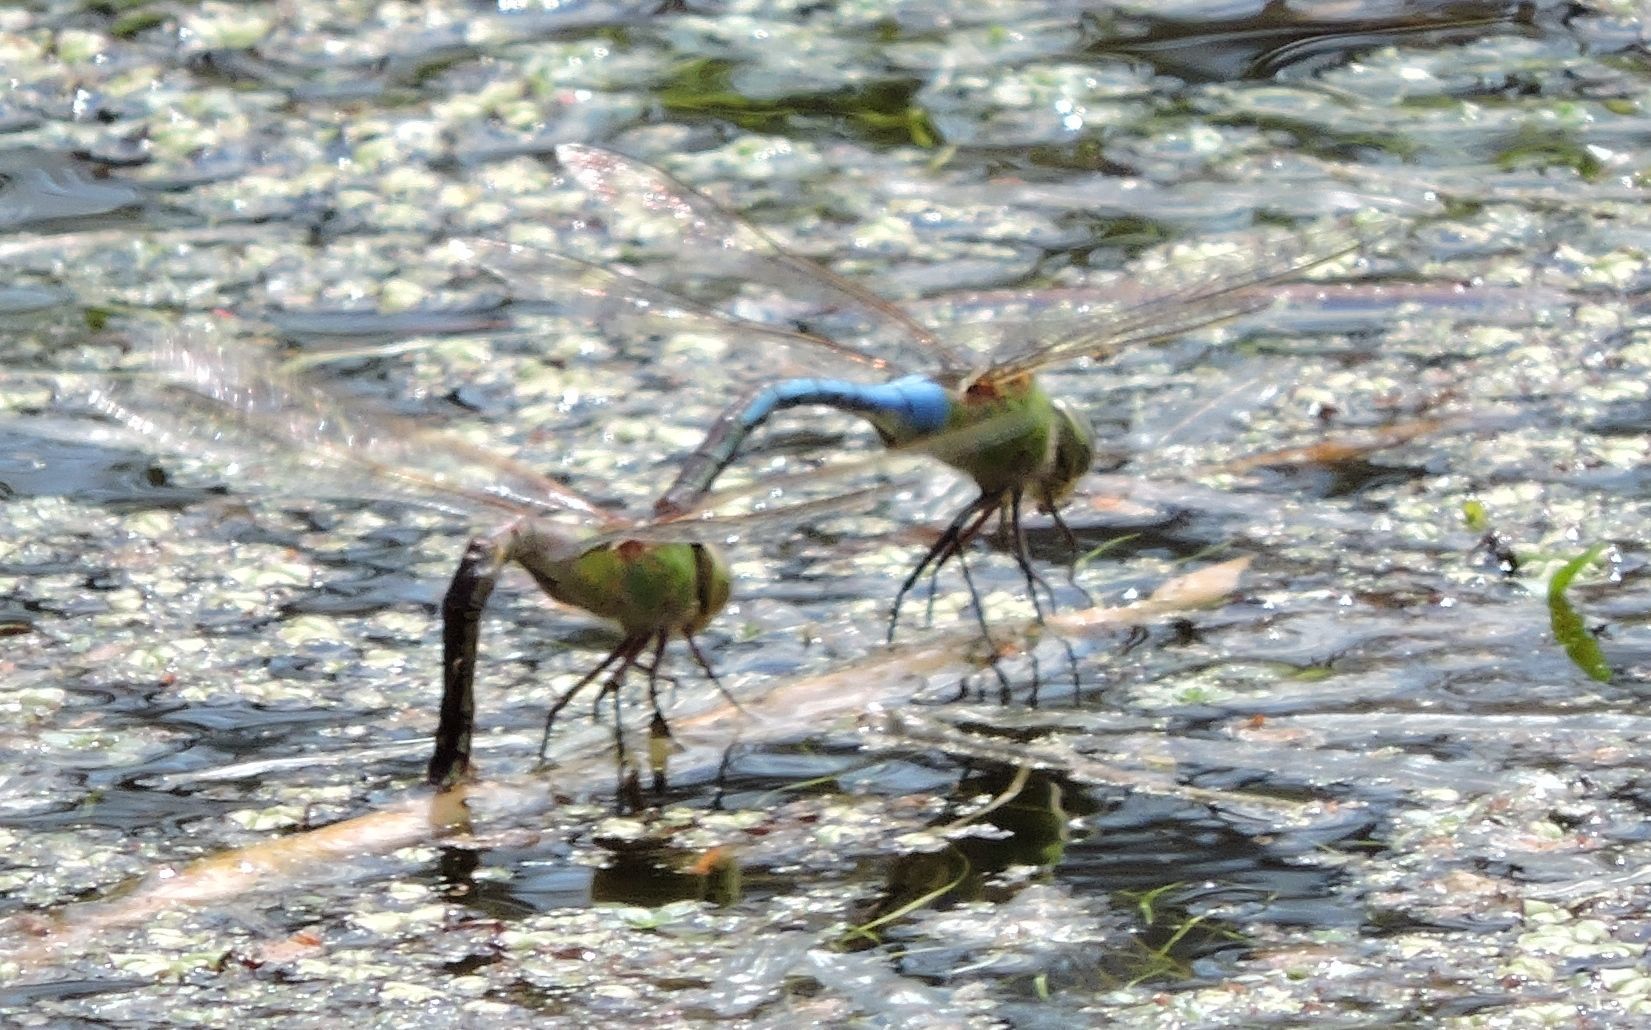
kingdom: Animalia
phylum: Arthropoda
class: Insecta
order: Odonata
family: Aeshnidae
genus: Anax
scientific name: Anax junius
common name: Common green darner
